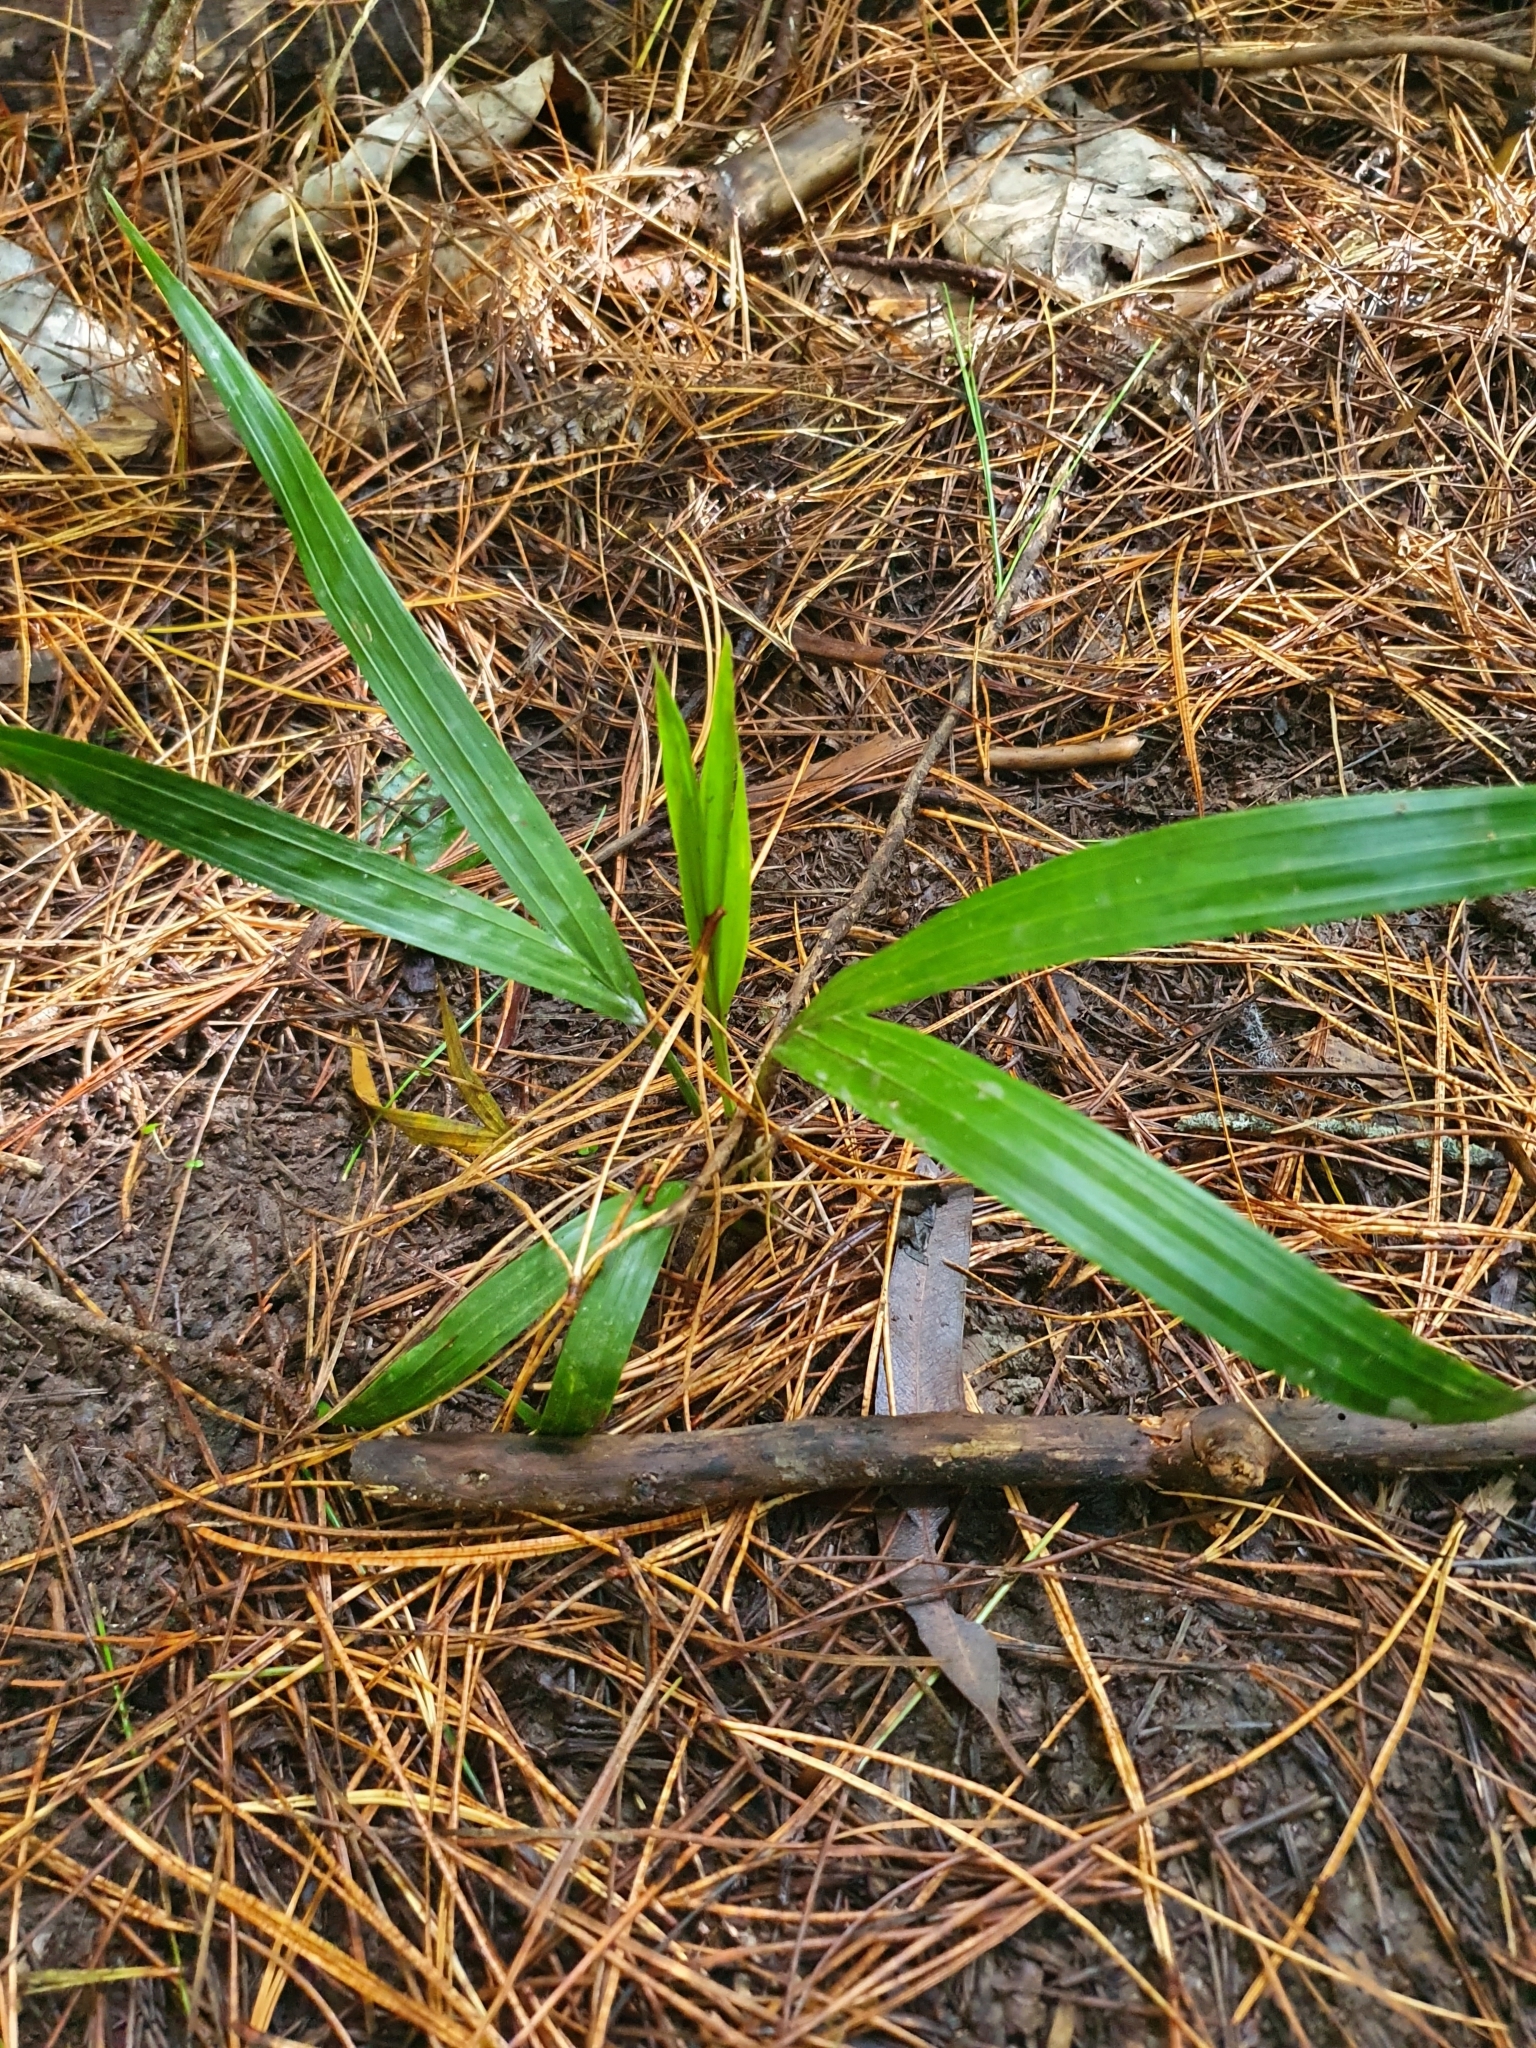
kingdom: Plantae
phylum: Tracheophyta
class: Liliopsida
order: Arecales
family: Arecaceae
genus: Rhopalostylis
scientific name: Rhopalostylis sapida
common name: Feather-duster palm
